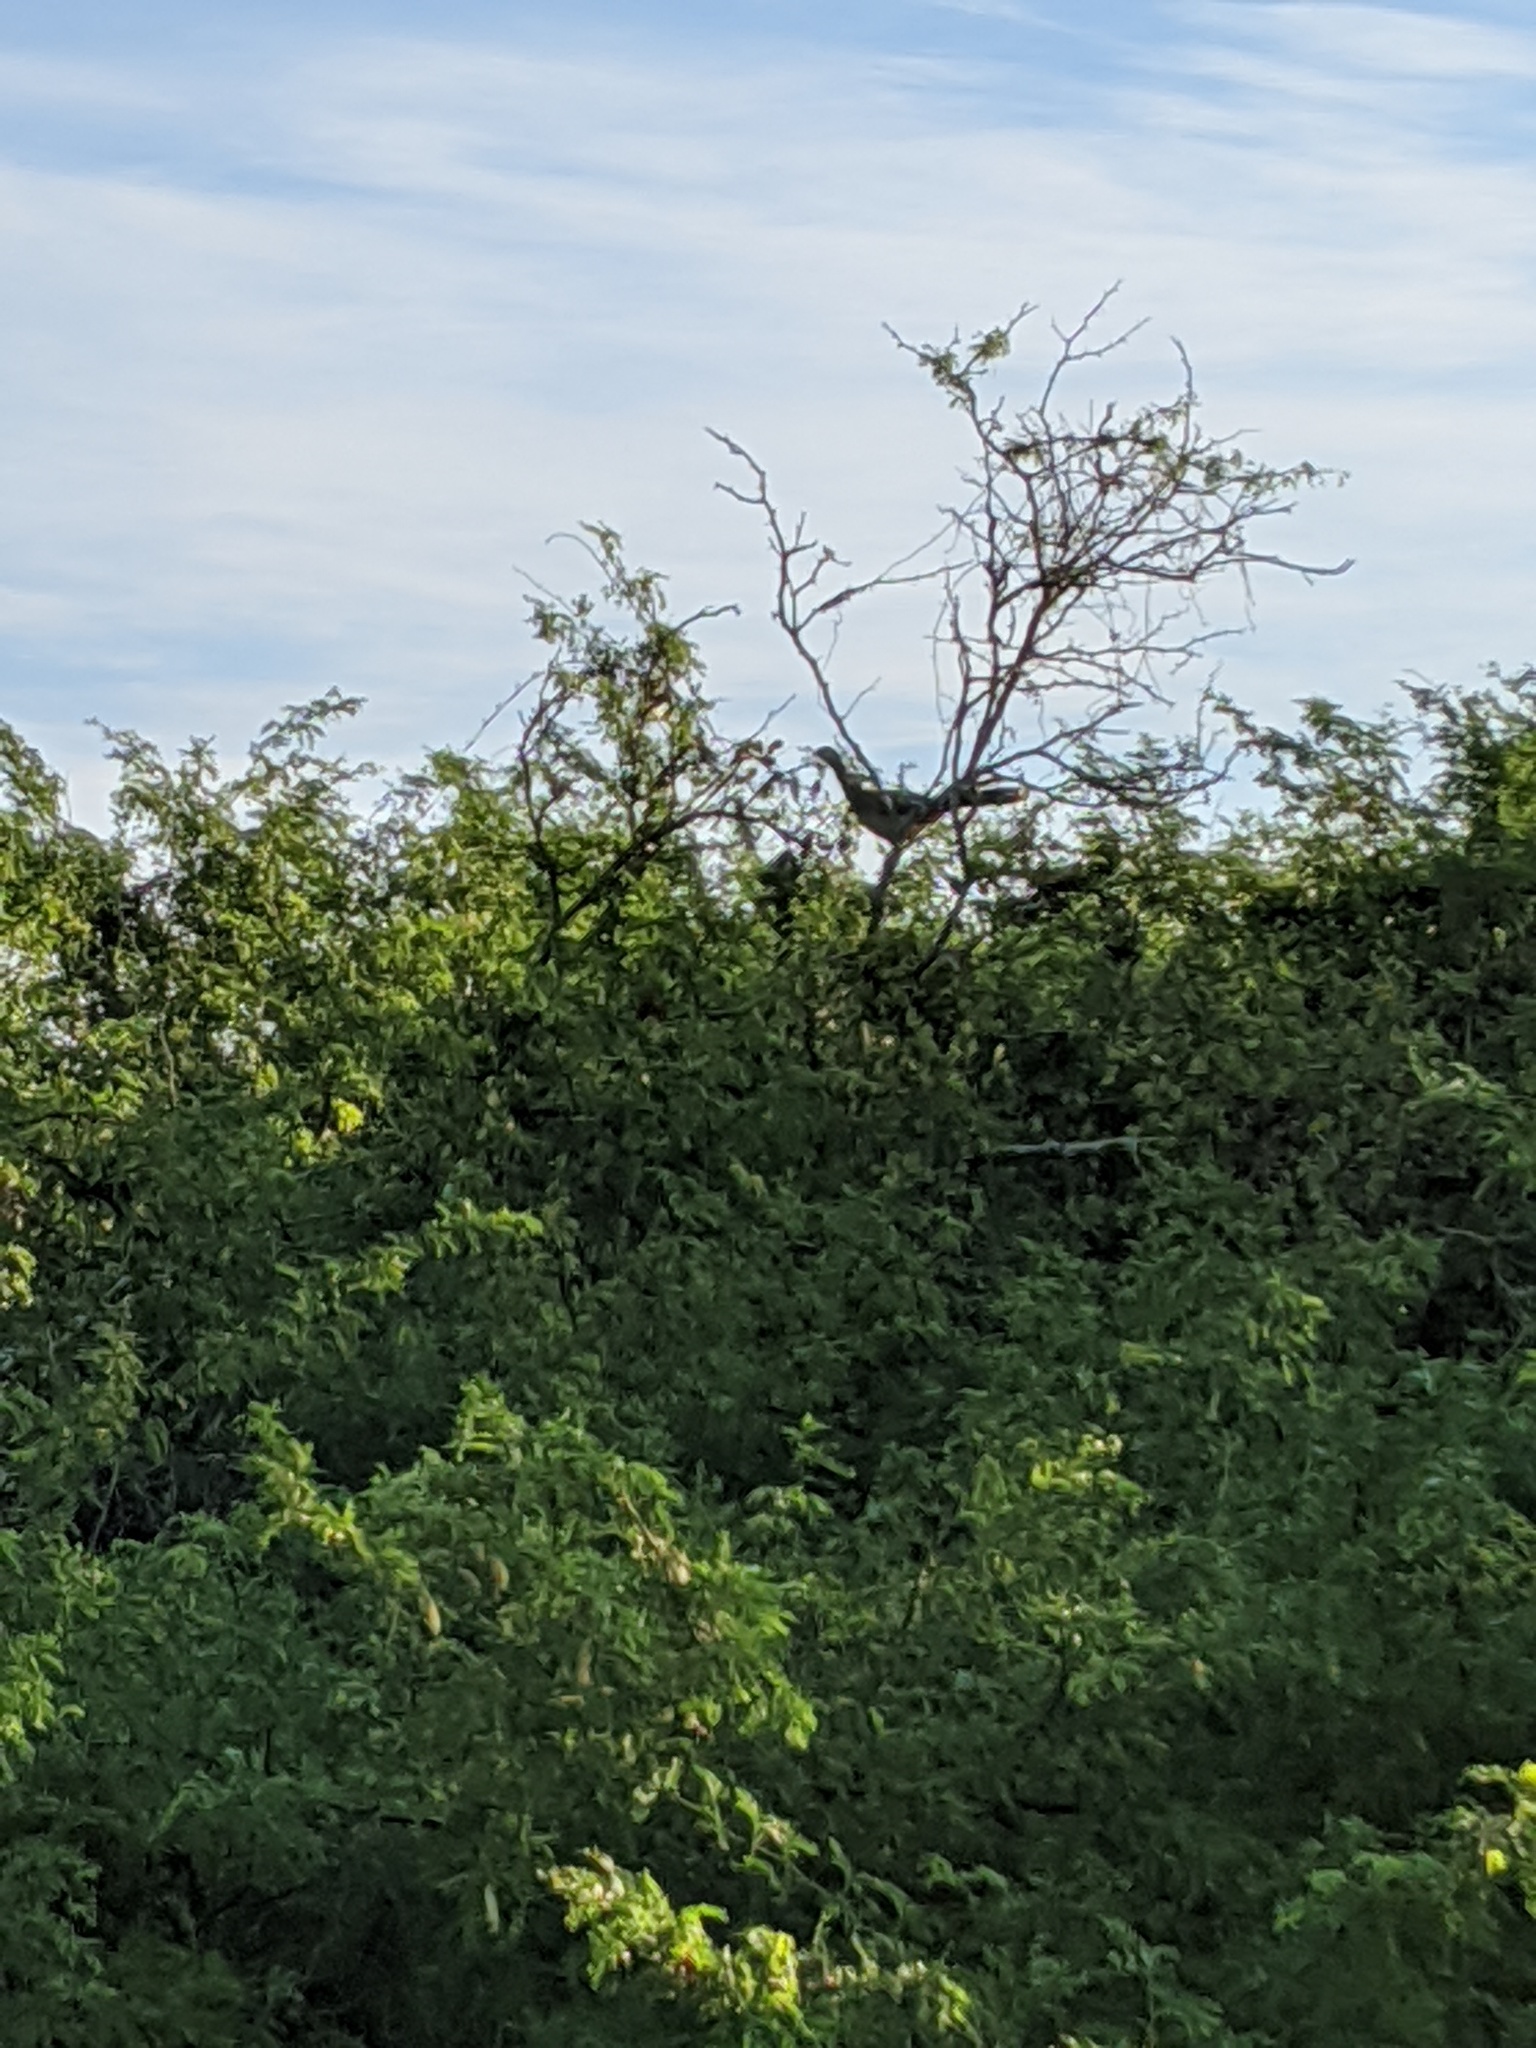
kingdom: Animalia
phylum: Chordata
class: Aves
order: Galliformes
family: Cracidae
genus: Ortalis
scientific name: Ortalis poliocephala
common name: West mexican chachalaca
